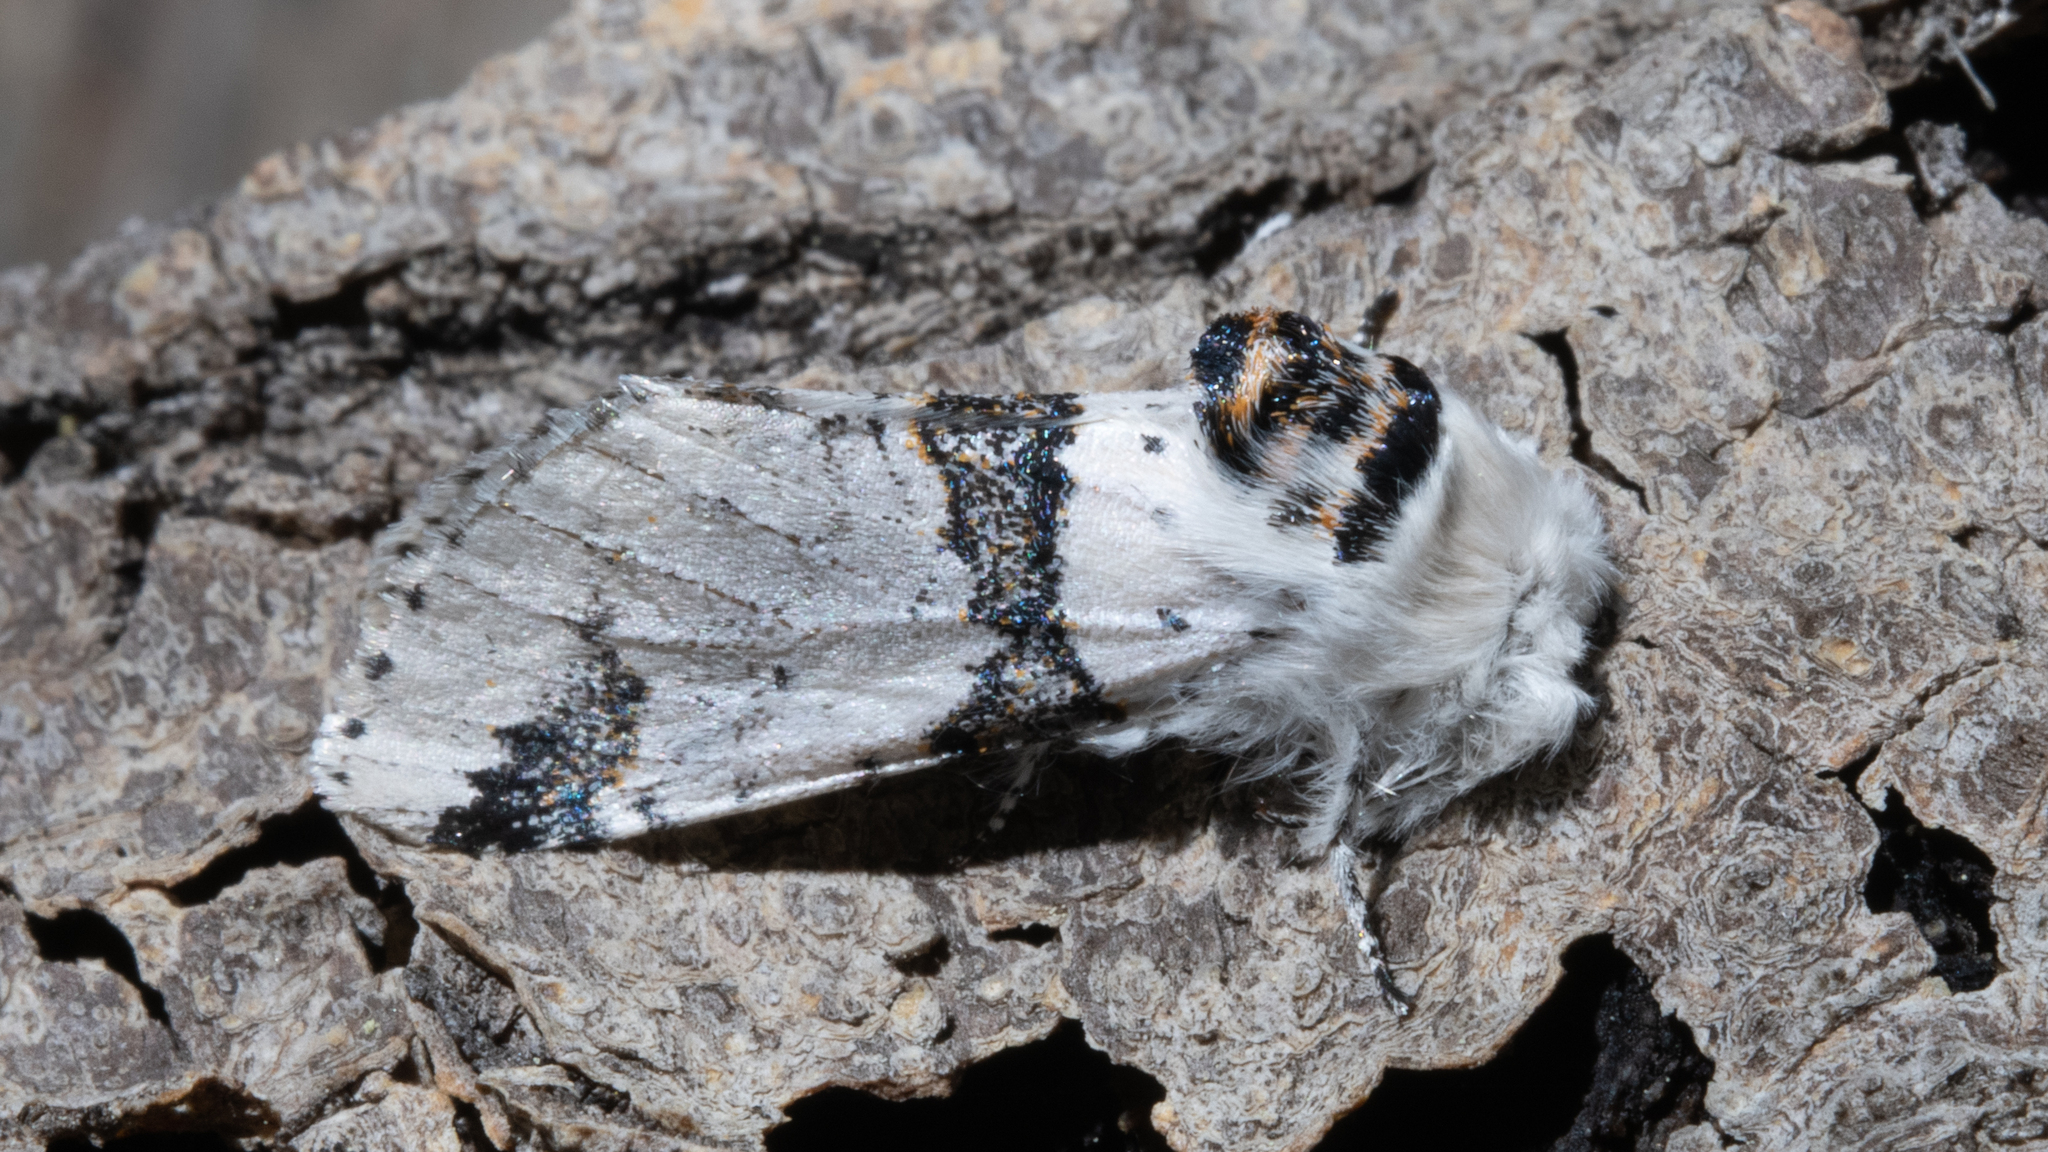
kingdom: Animalia
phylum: Arthropoda
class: Insecta
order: Lepidoptera
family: Notodontidae
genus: Furcula
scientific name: Furcula scolopendrina
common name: Zigzag furcula moth
